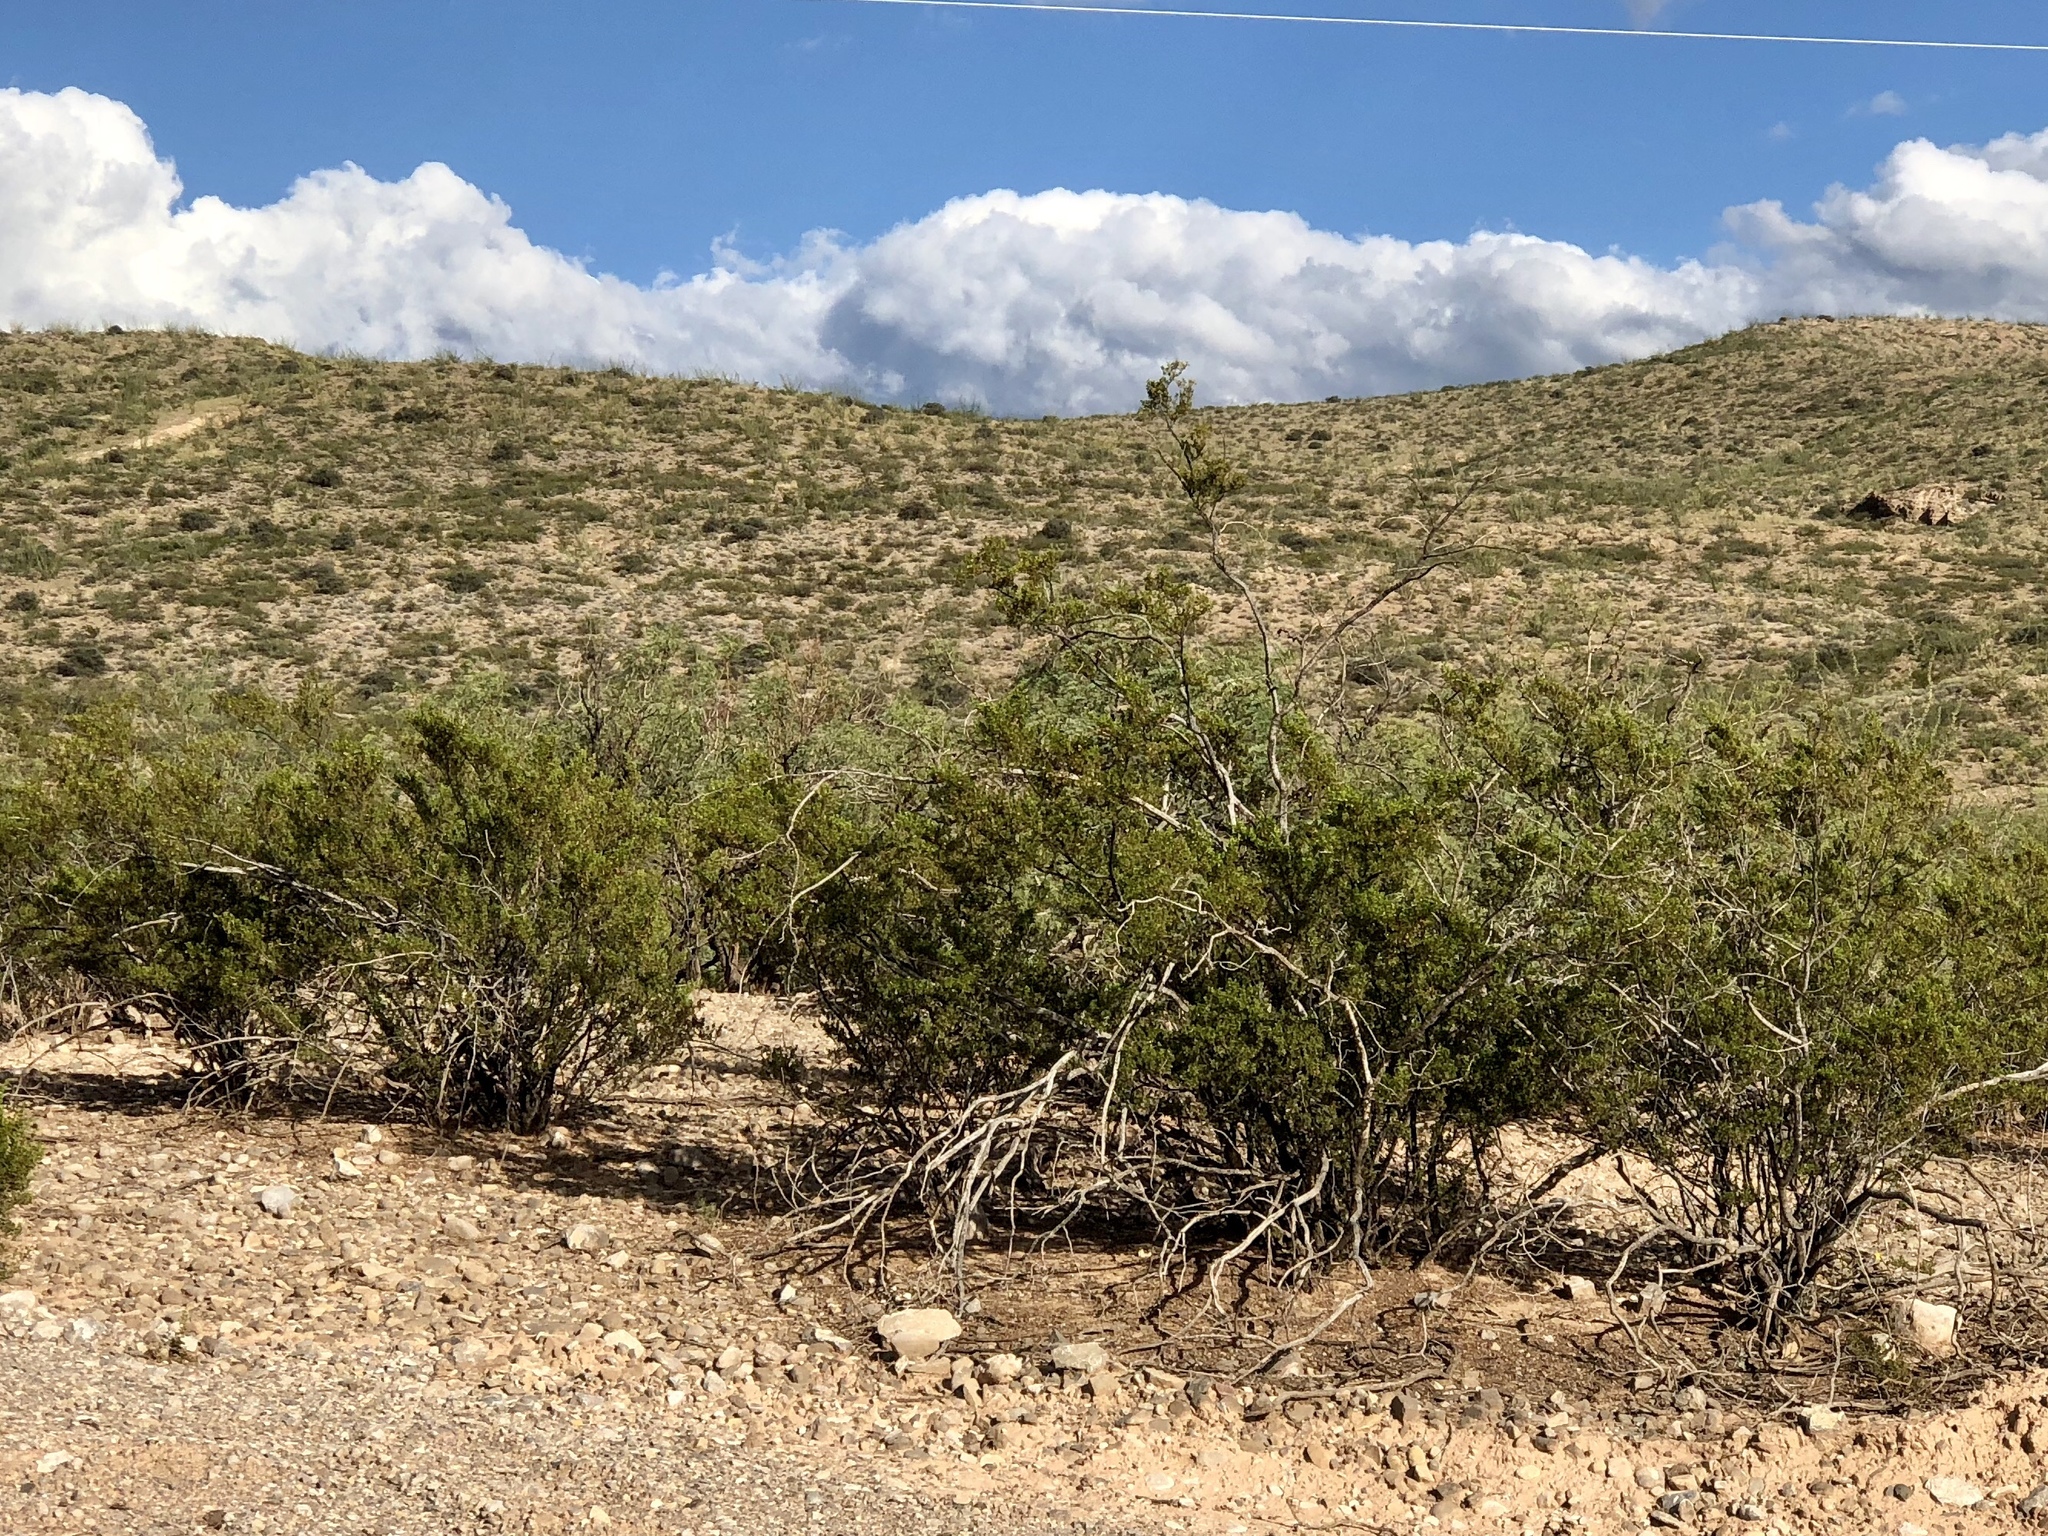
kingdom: Plantae
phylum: Tracheophyta
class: Magnoliopsida
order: Zygophyllales
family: Zygophyllaceae
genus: Larrea
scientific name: Larrea tridentata
